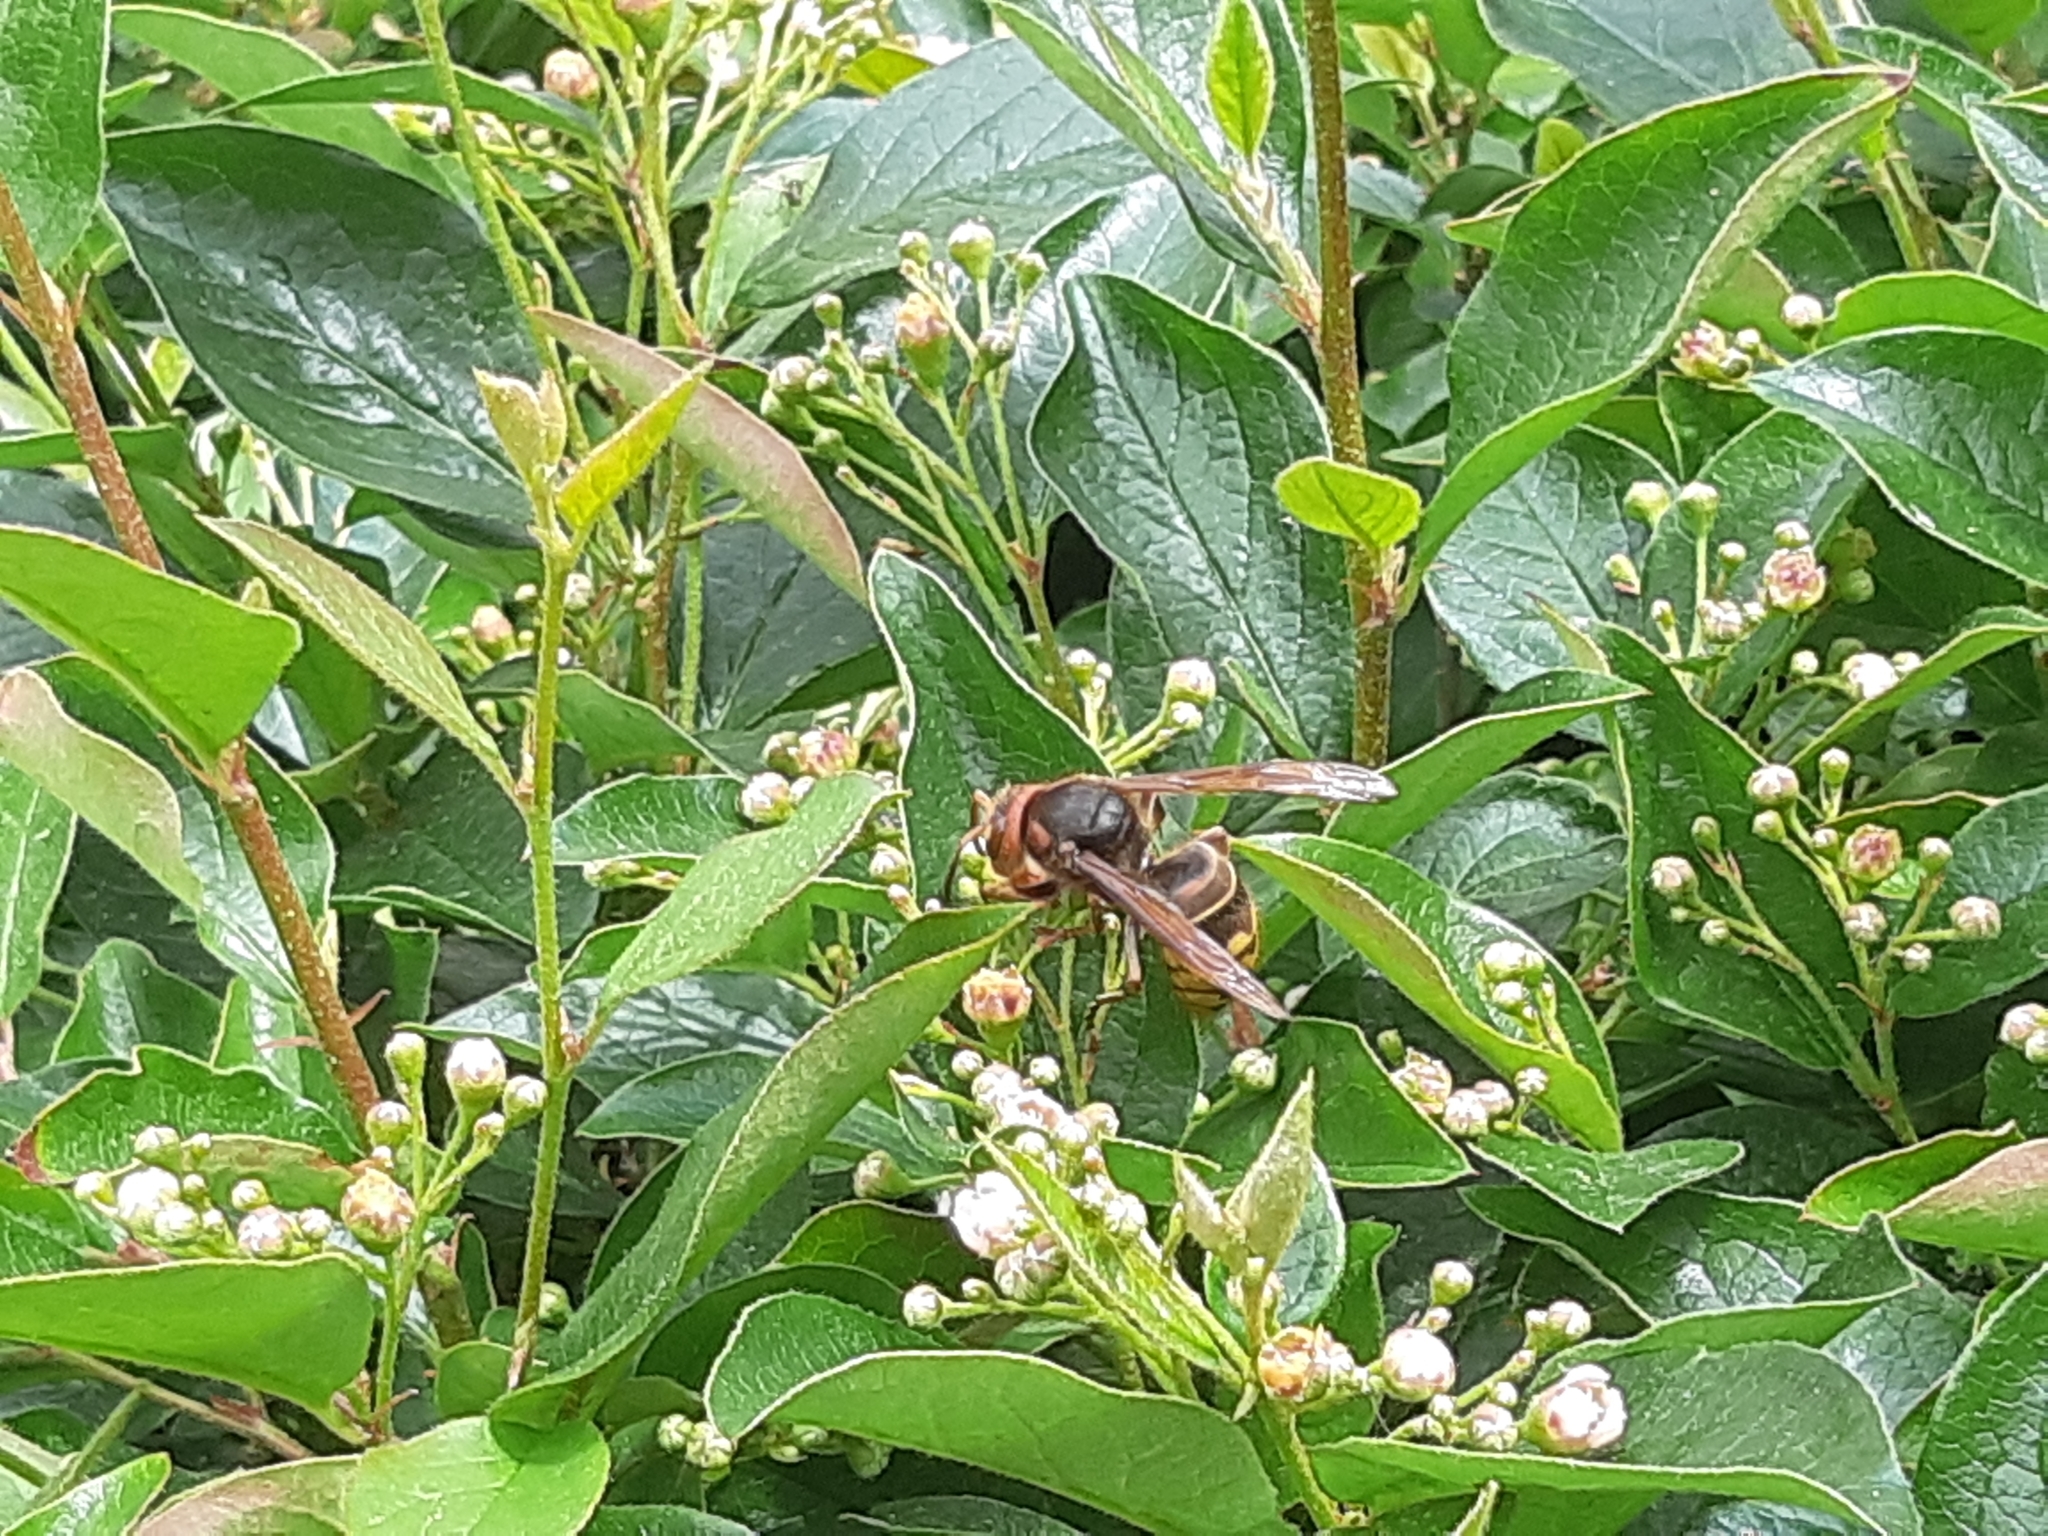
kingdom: Animalia
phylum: Arthropoda
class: Insecta
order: Hymenoptera
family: Vespidae
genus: Vespa
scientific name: Vespa crabro
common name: Hornet
